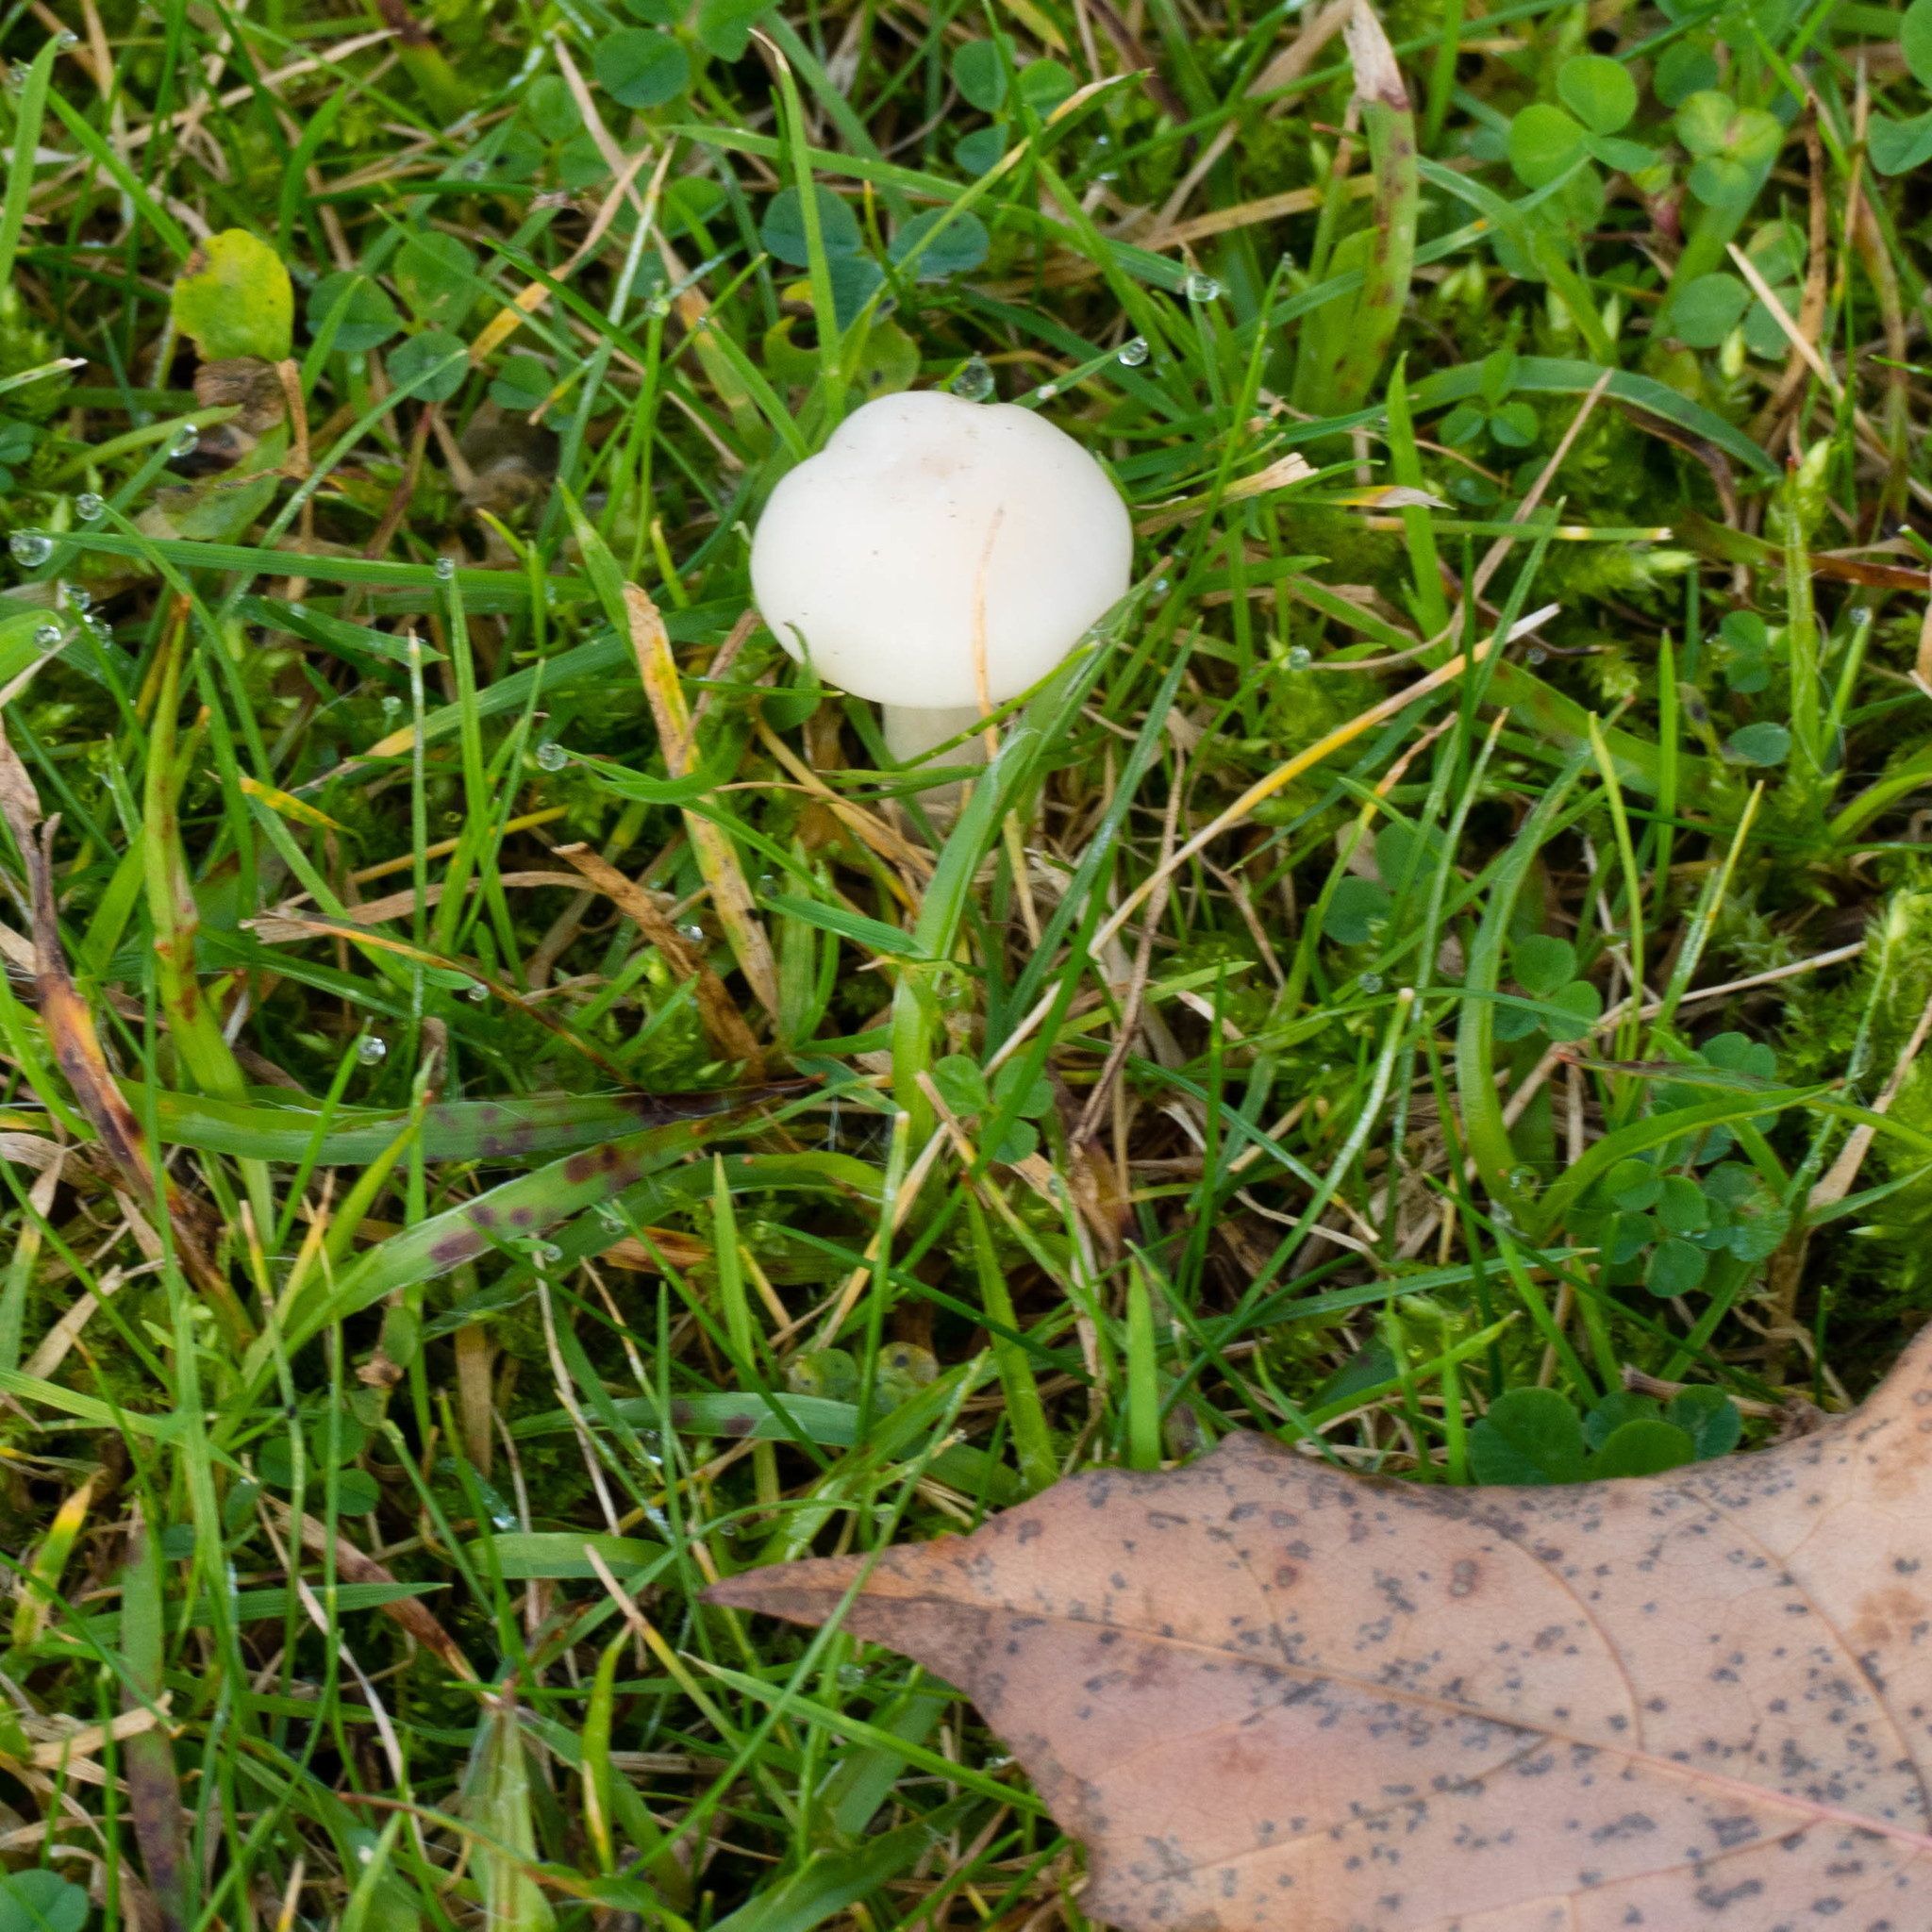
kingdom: Fungi
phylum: Basidiomycota
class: Agaricomycetes
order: Agaricales
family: Hygrophoraceae
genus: Cuphophyllus
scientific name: Cuphophyllus virgineus
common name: Snowy waxcap
